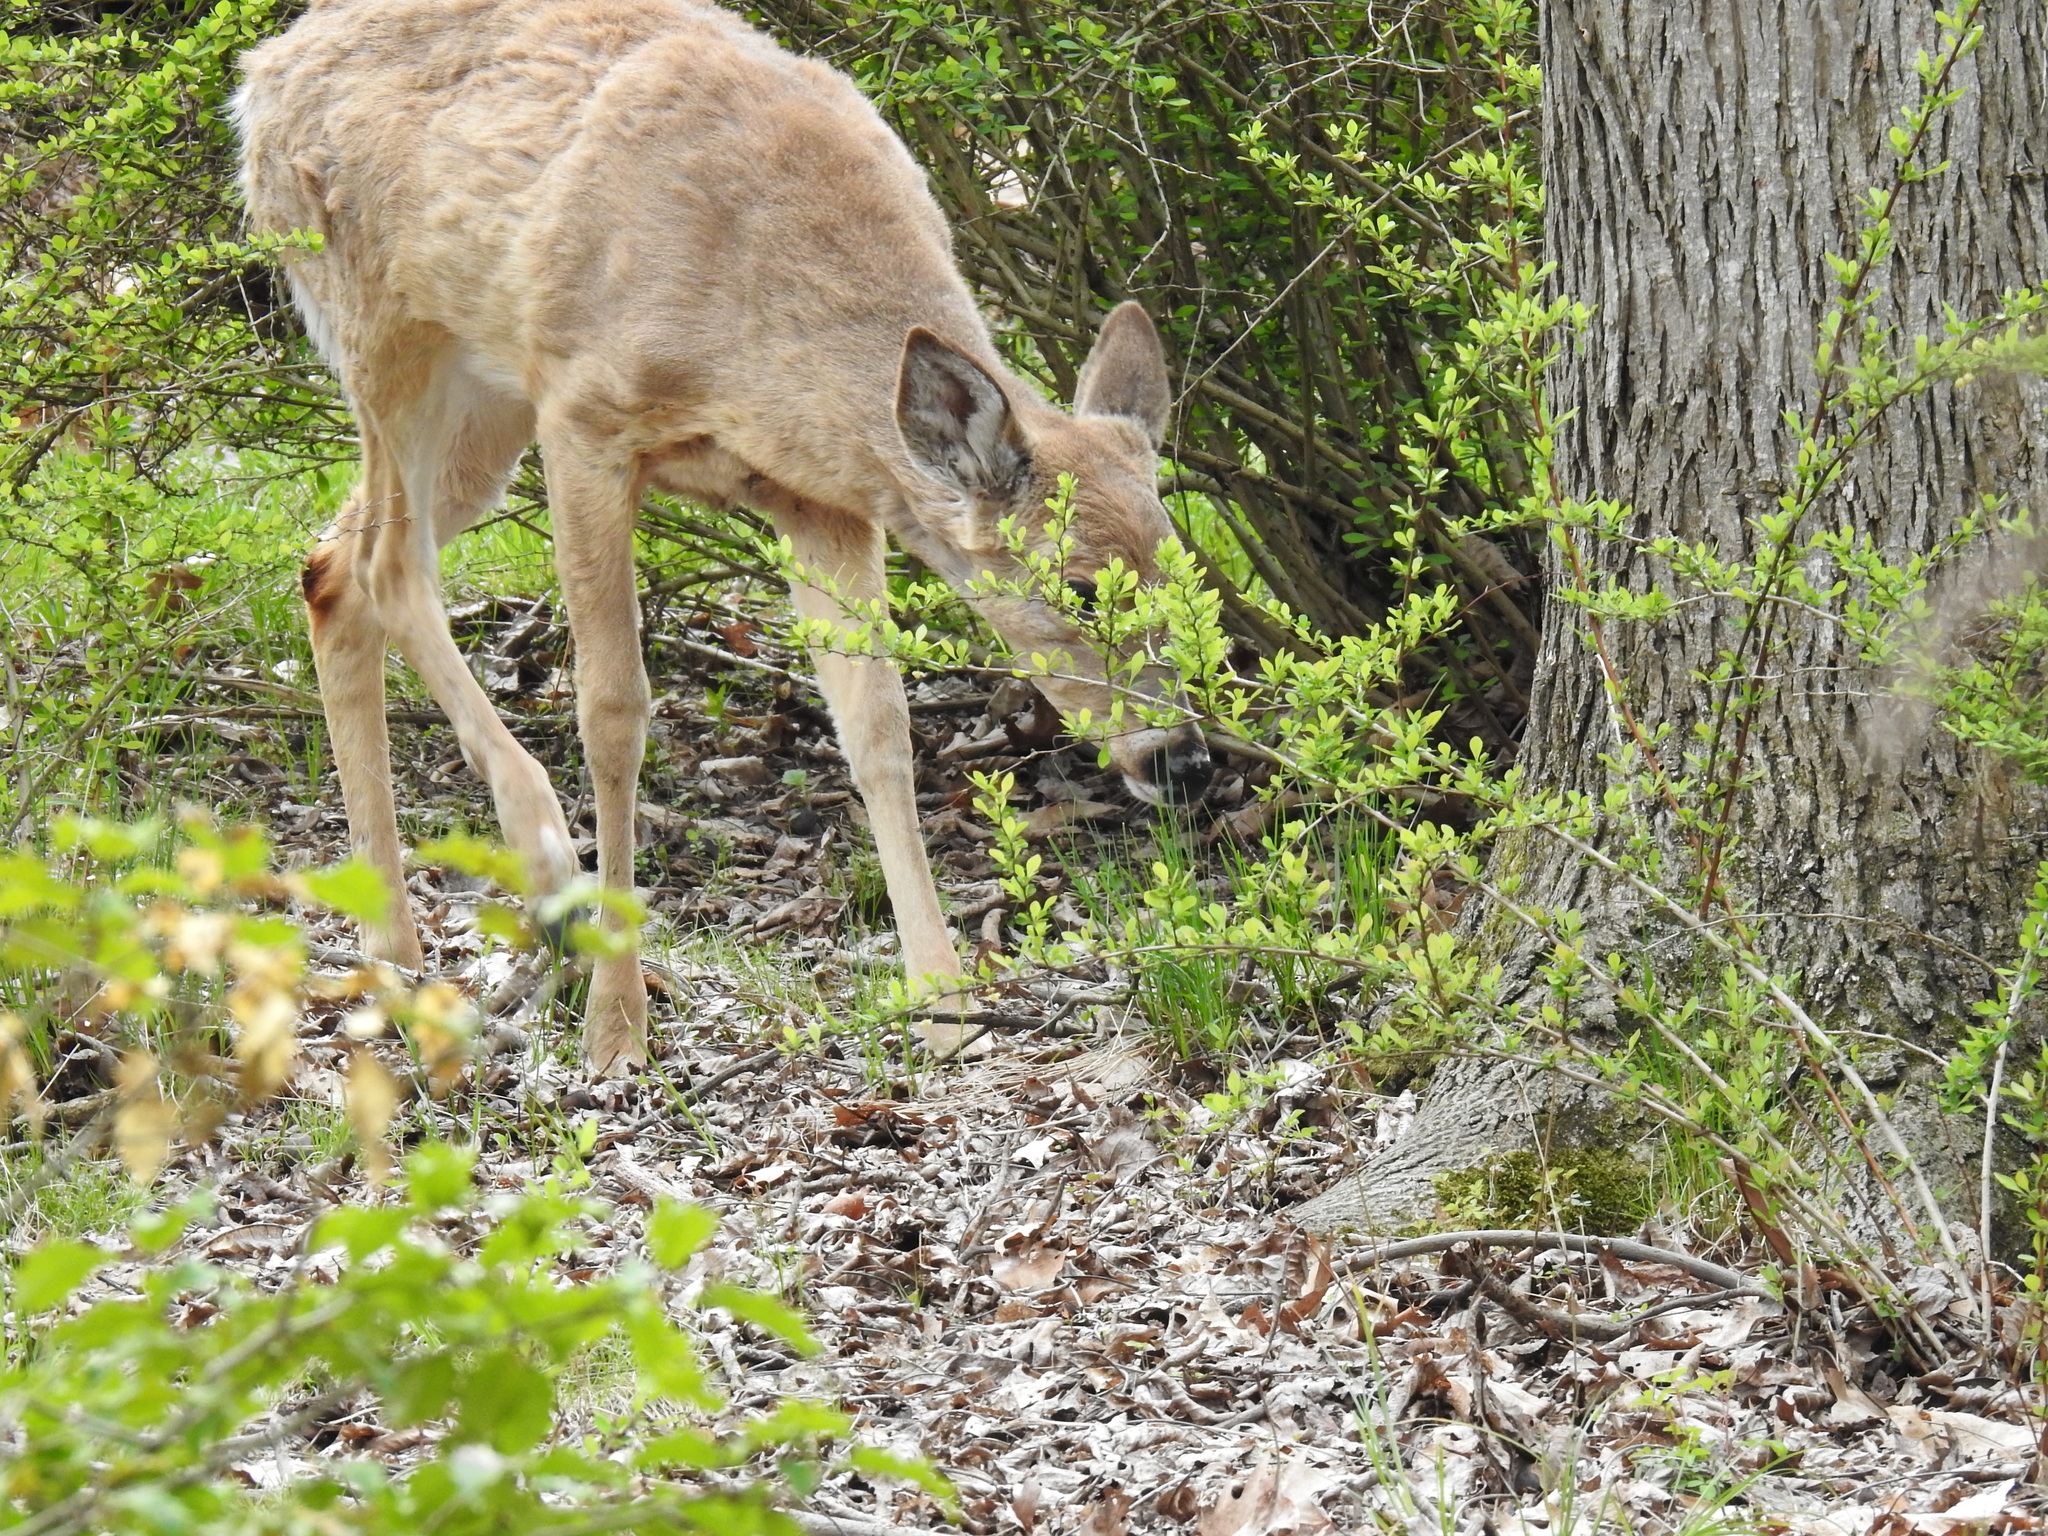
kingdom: Animalia
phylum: Chordata
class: Mammalia
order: Artiodactyla
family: Cervidae
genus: Odocoileus
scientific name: Odocoileus virginianus
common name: White-tailed deer
